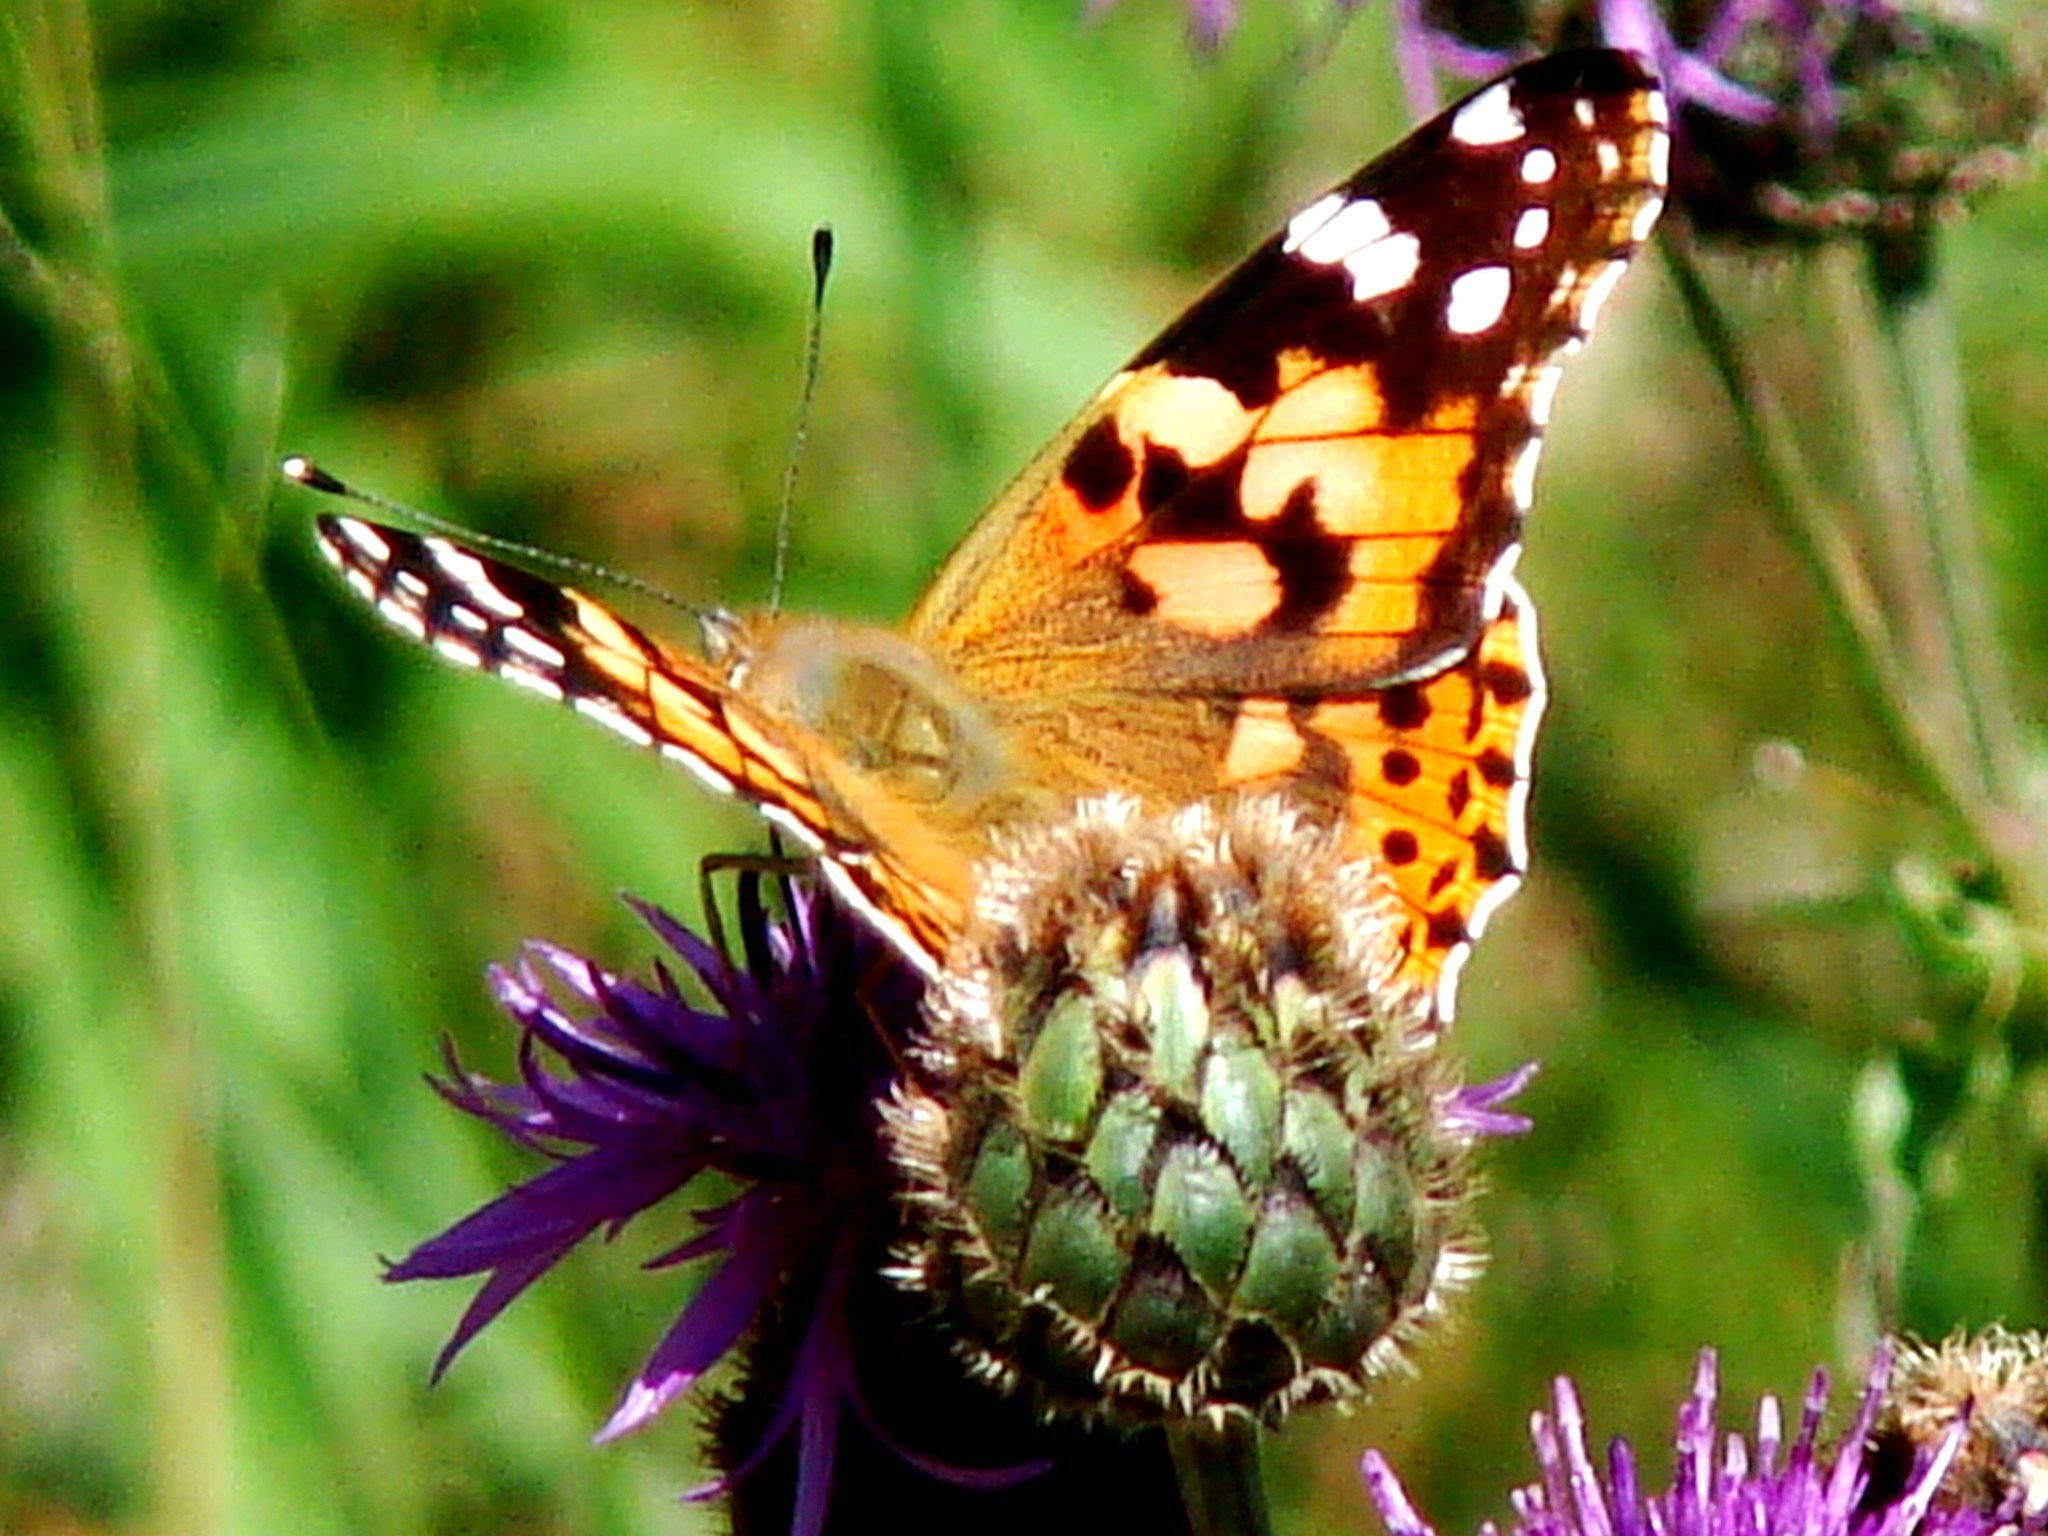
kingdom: Animalia
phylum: Arthropoda
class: Insecta
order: Lepidoptera
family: Nymphalidae
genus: Vanessa
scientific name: Vanessa cardui
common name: Painted lady
